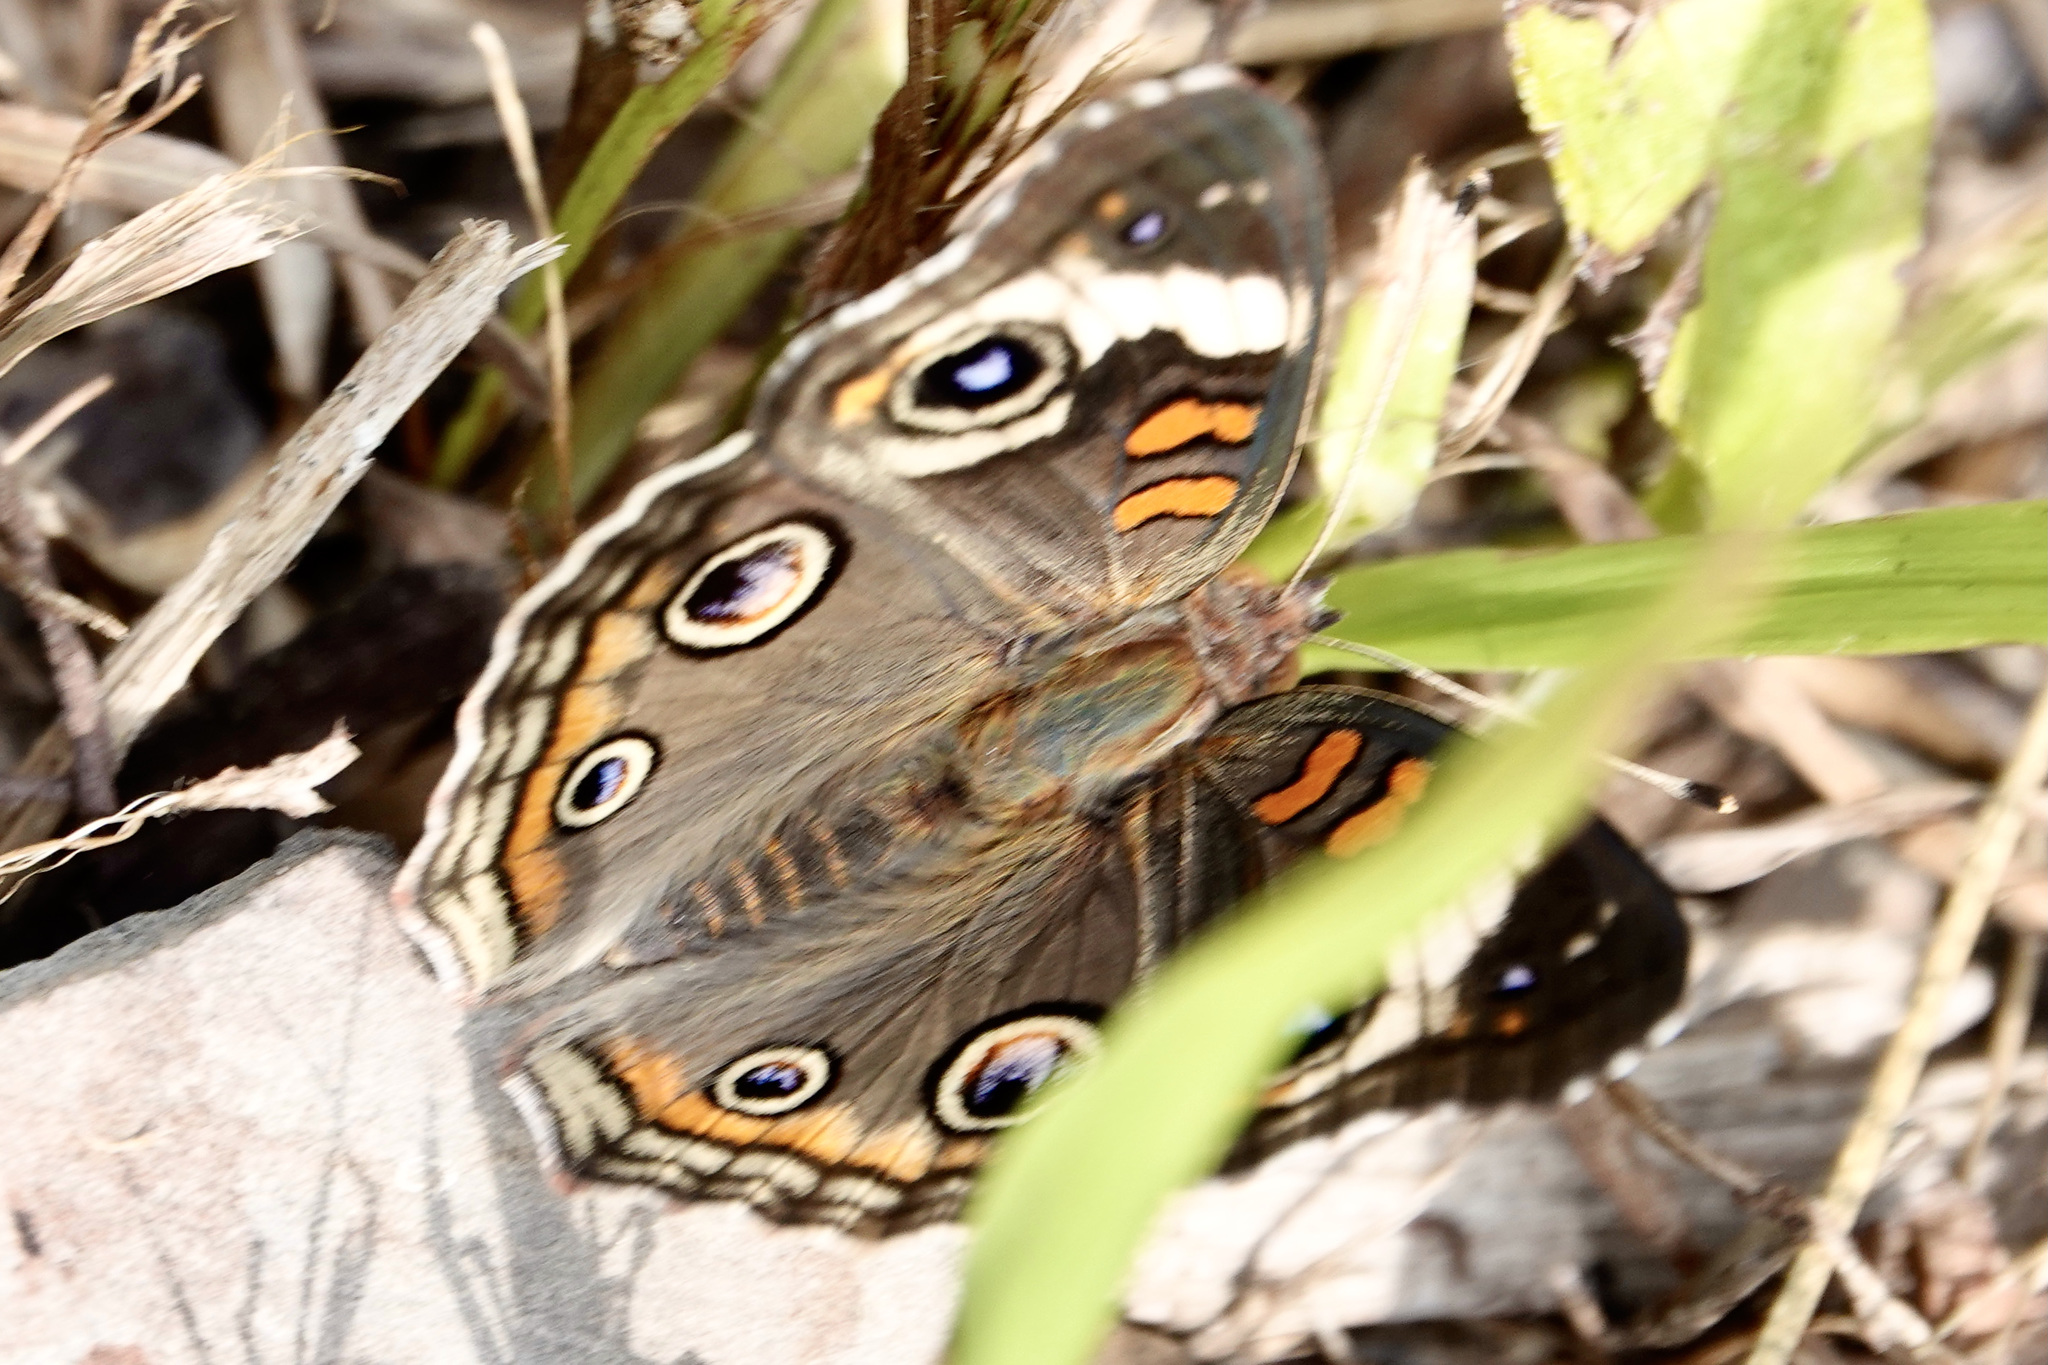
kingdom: Animalia
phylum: Arthropoda
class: Insecta
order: Lepidoptera
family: Nymphalidae
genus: Junonia
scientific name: Junonia coenia
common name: Common buckeye
